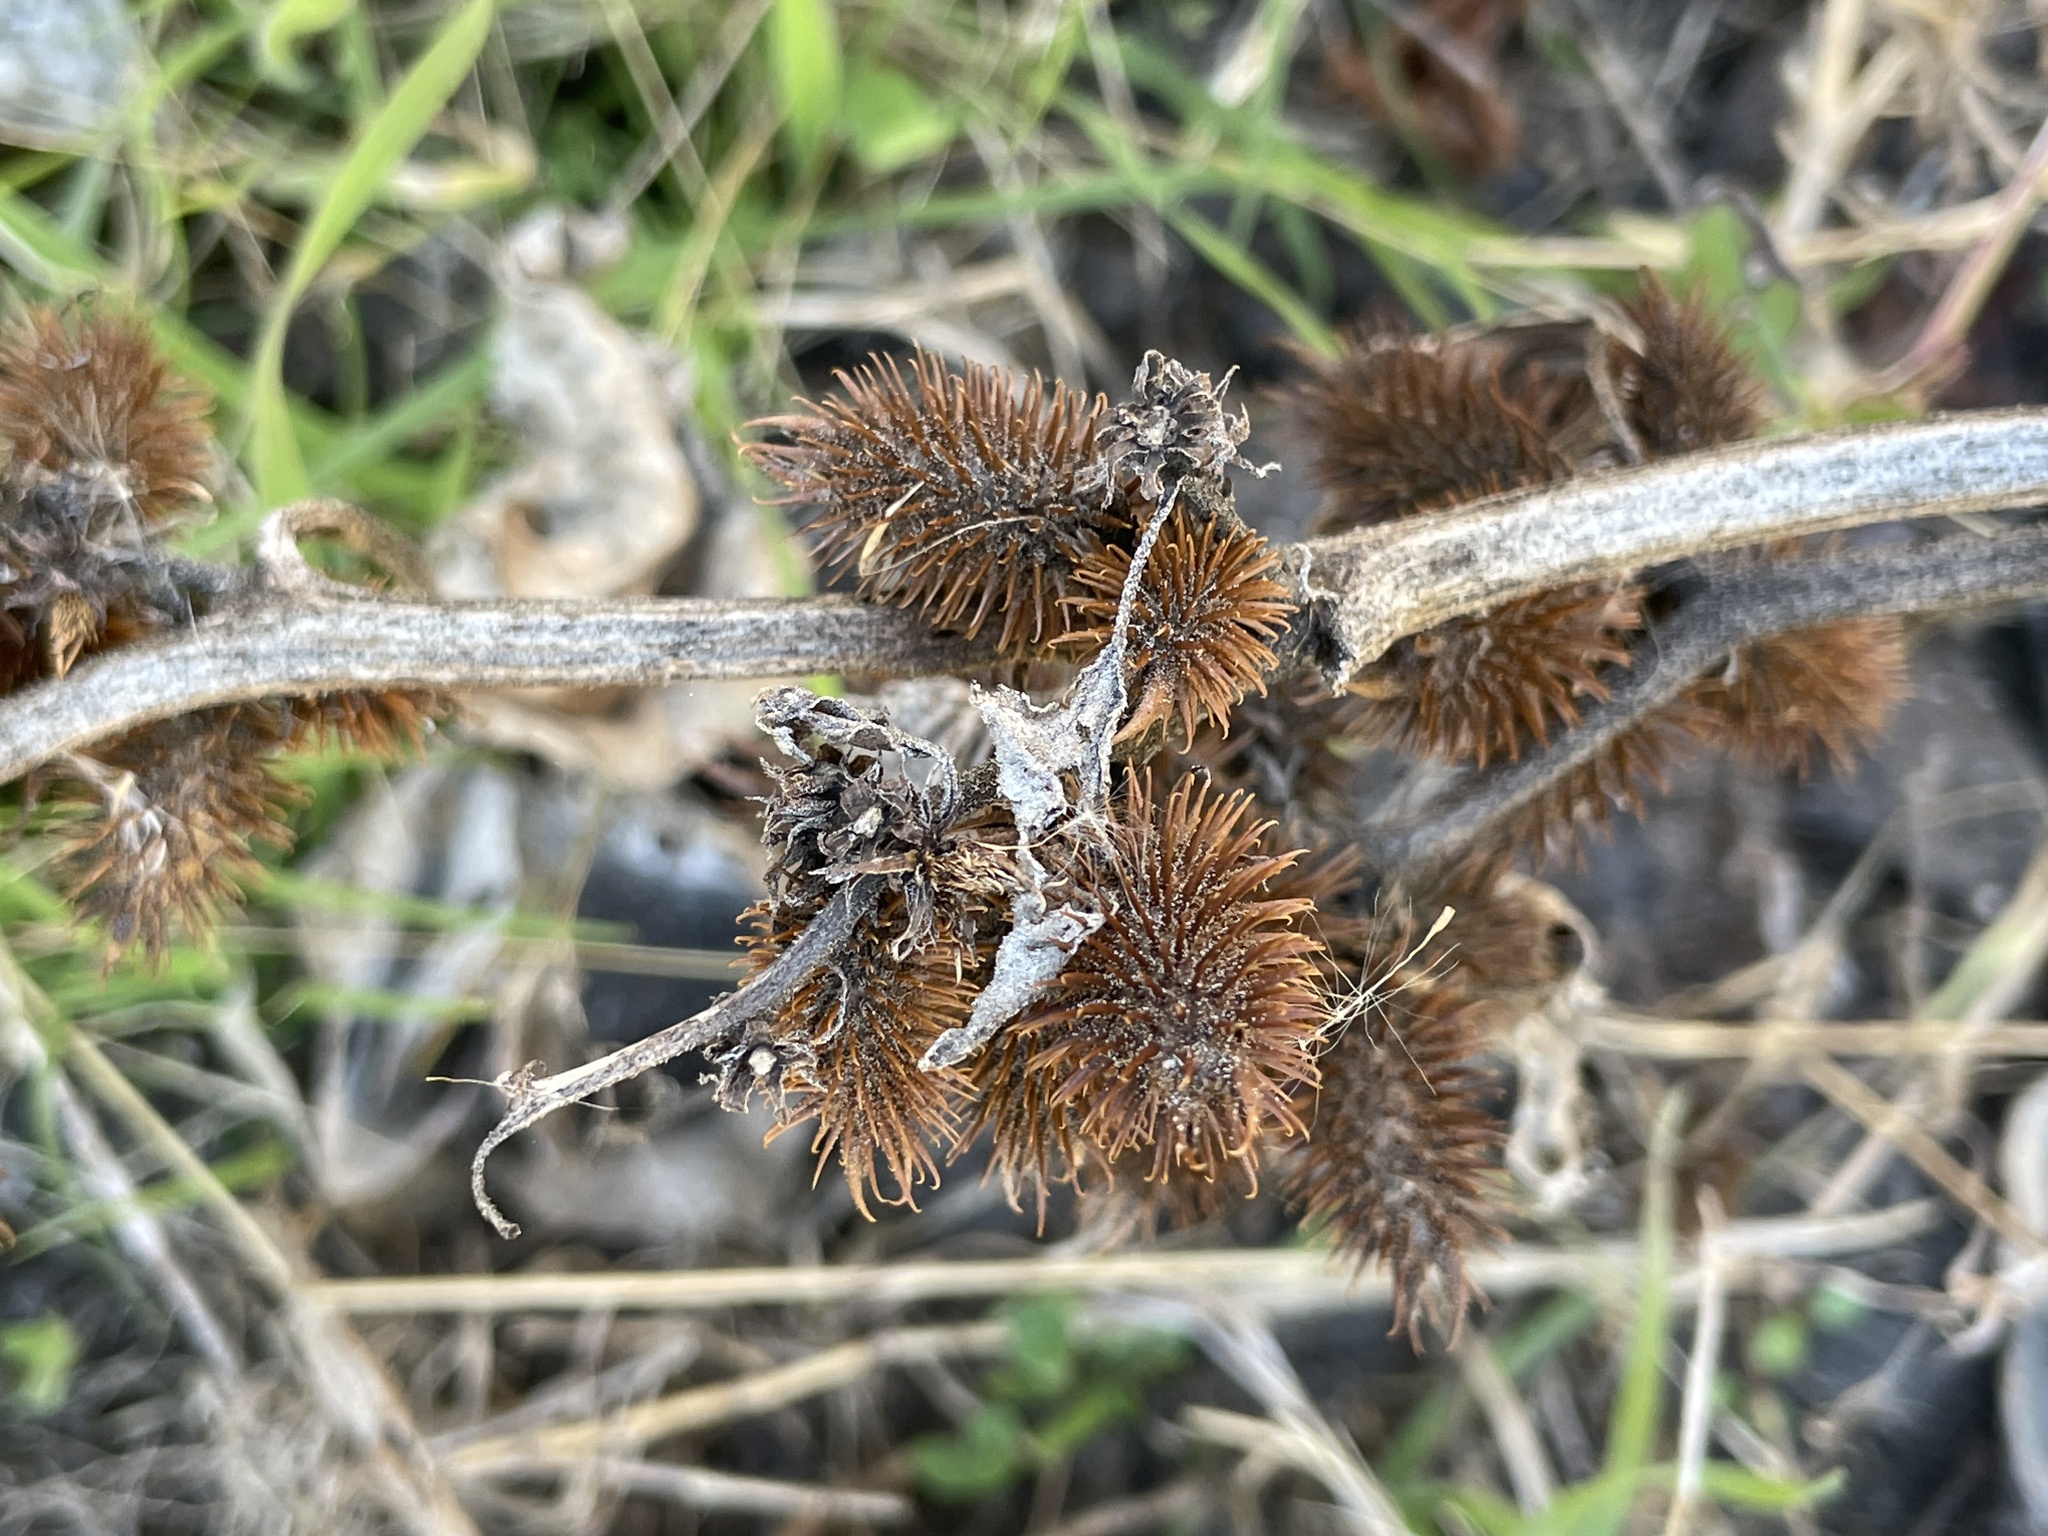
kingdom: Plantae
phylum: Tracheophyta
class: Magnoliopsida
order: Asterales
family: Asteraceae
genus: Xanthium
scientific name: Xanthium strumarium
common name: Rough cocklebur
